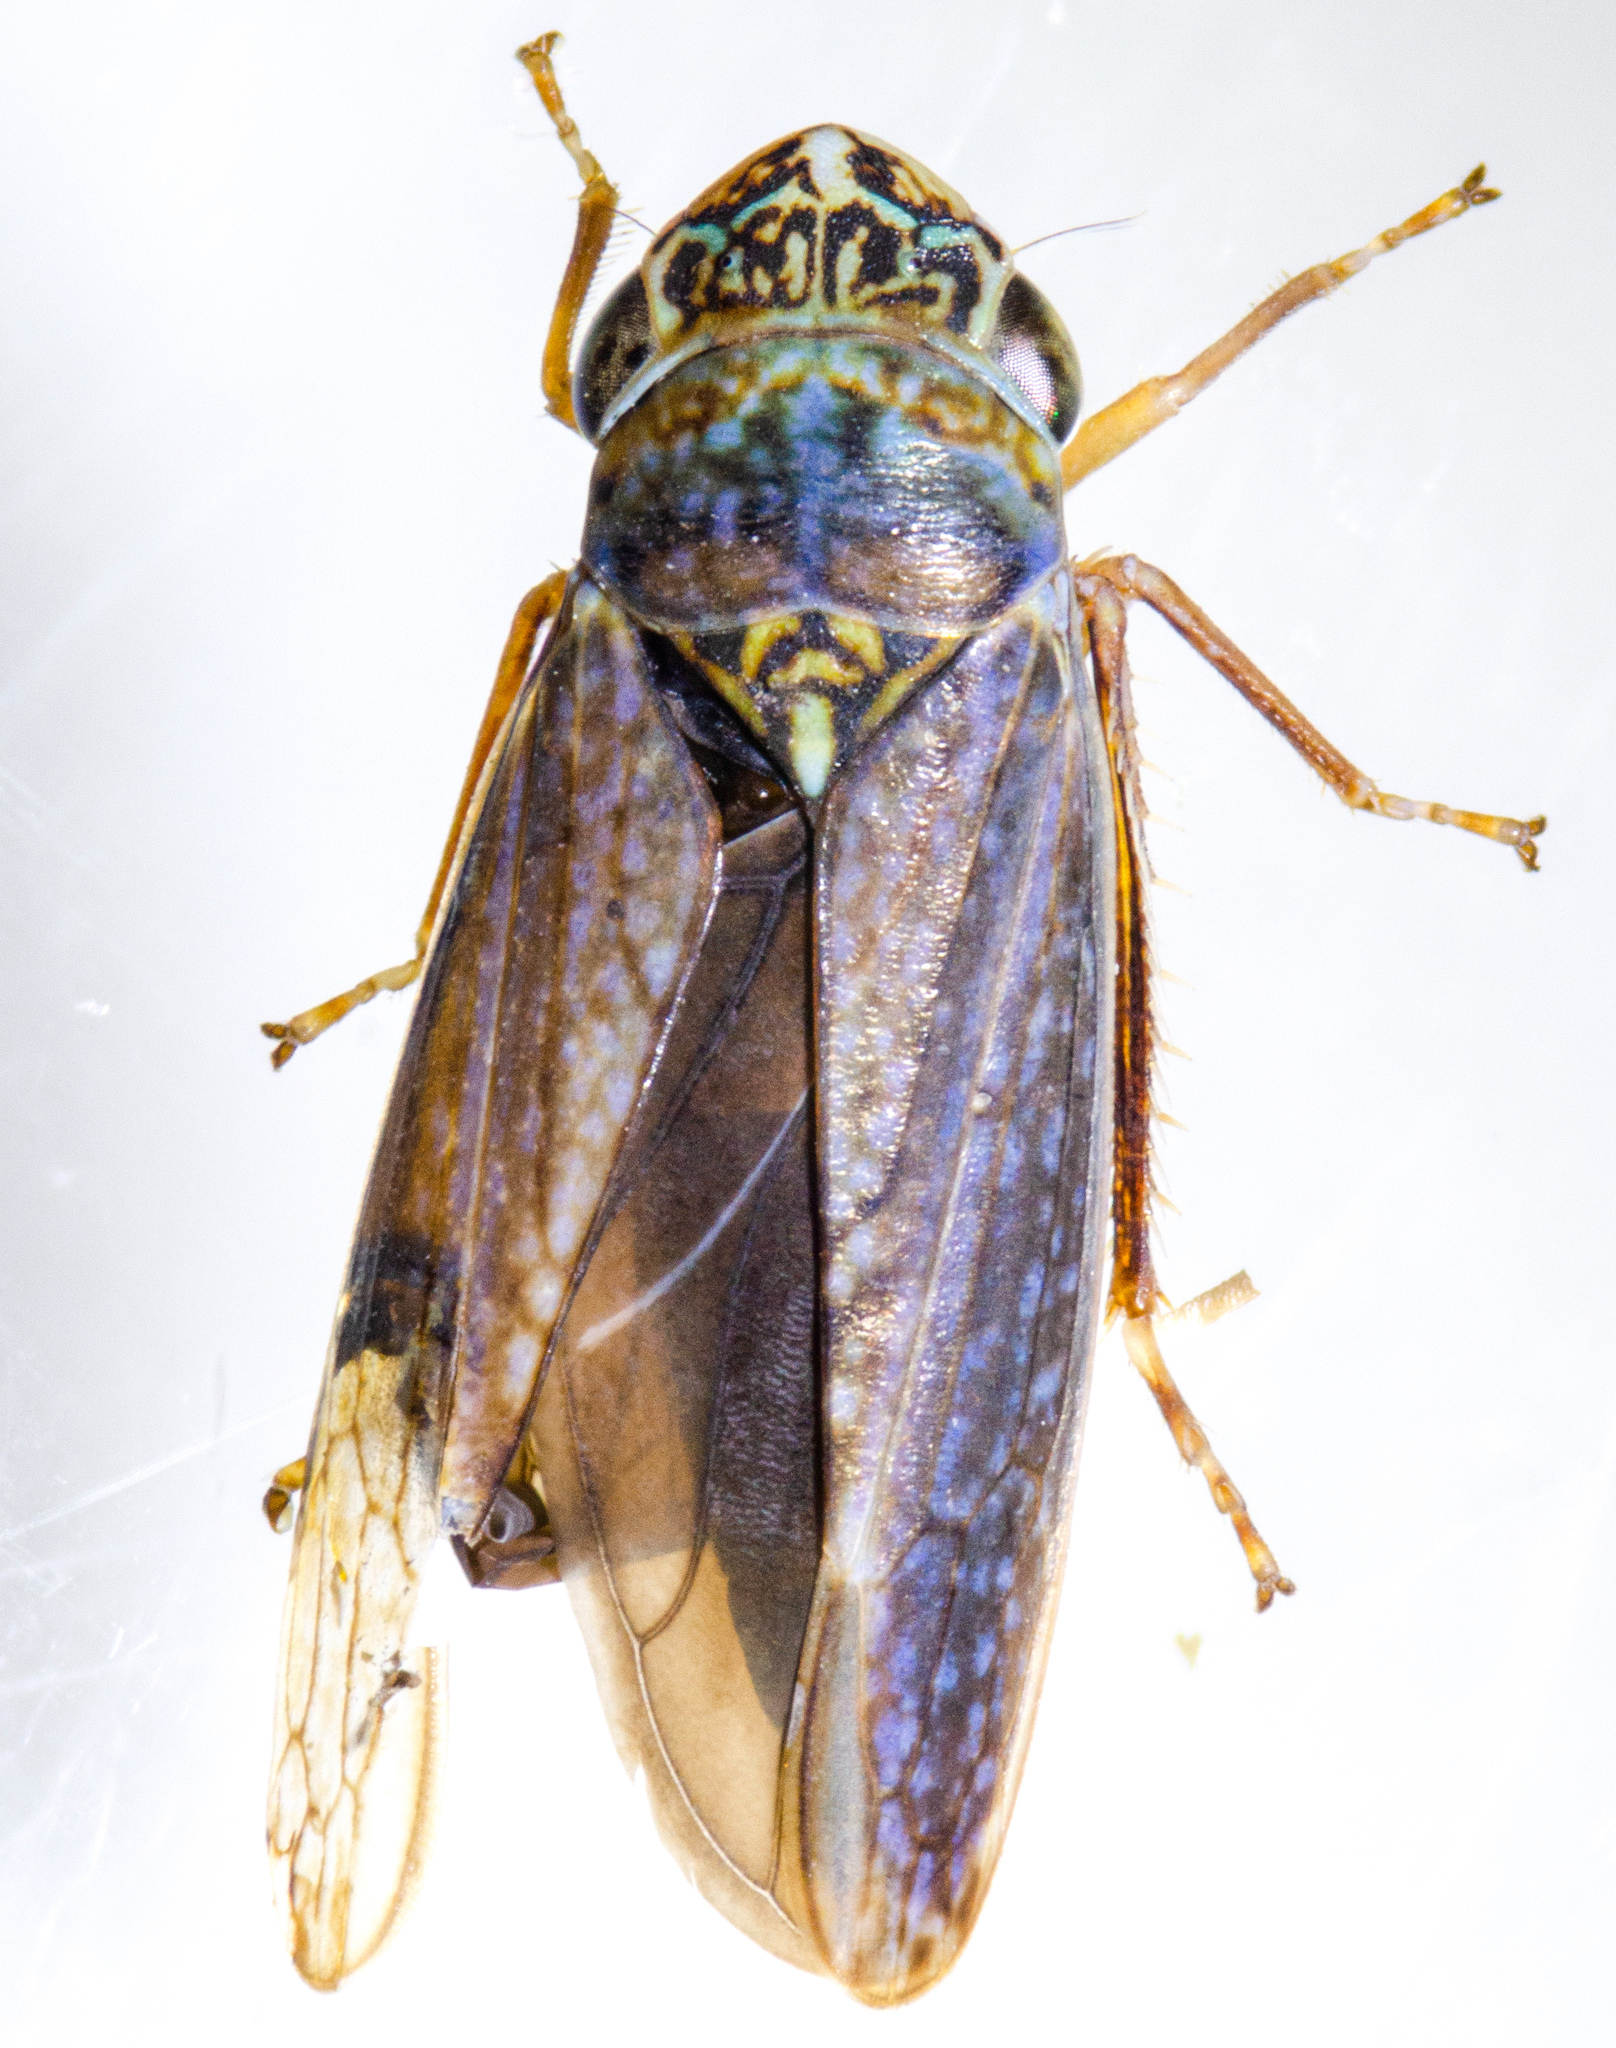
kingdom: Animalia
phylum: Arthropoda
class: Insecta
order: Hemiptera
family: Cicadellidae
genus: Graphocephala
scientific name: Graphocephala confluens
